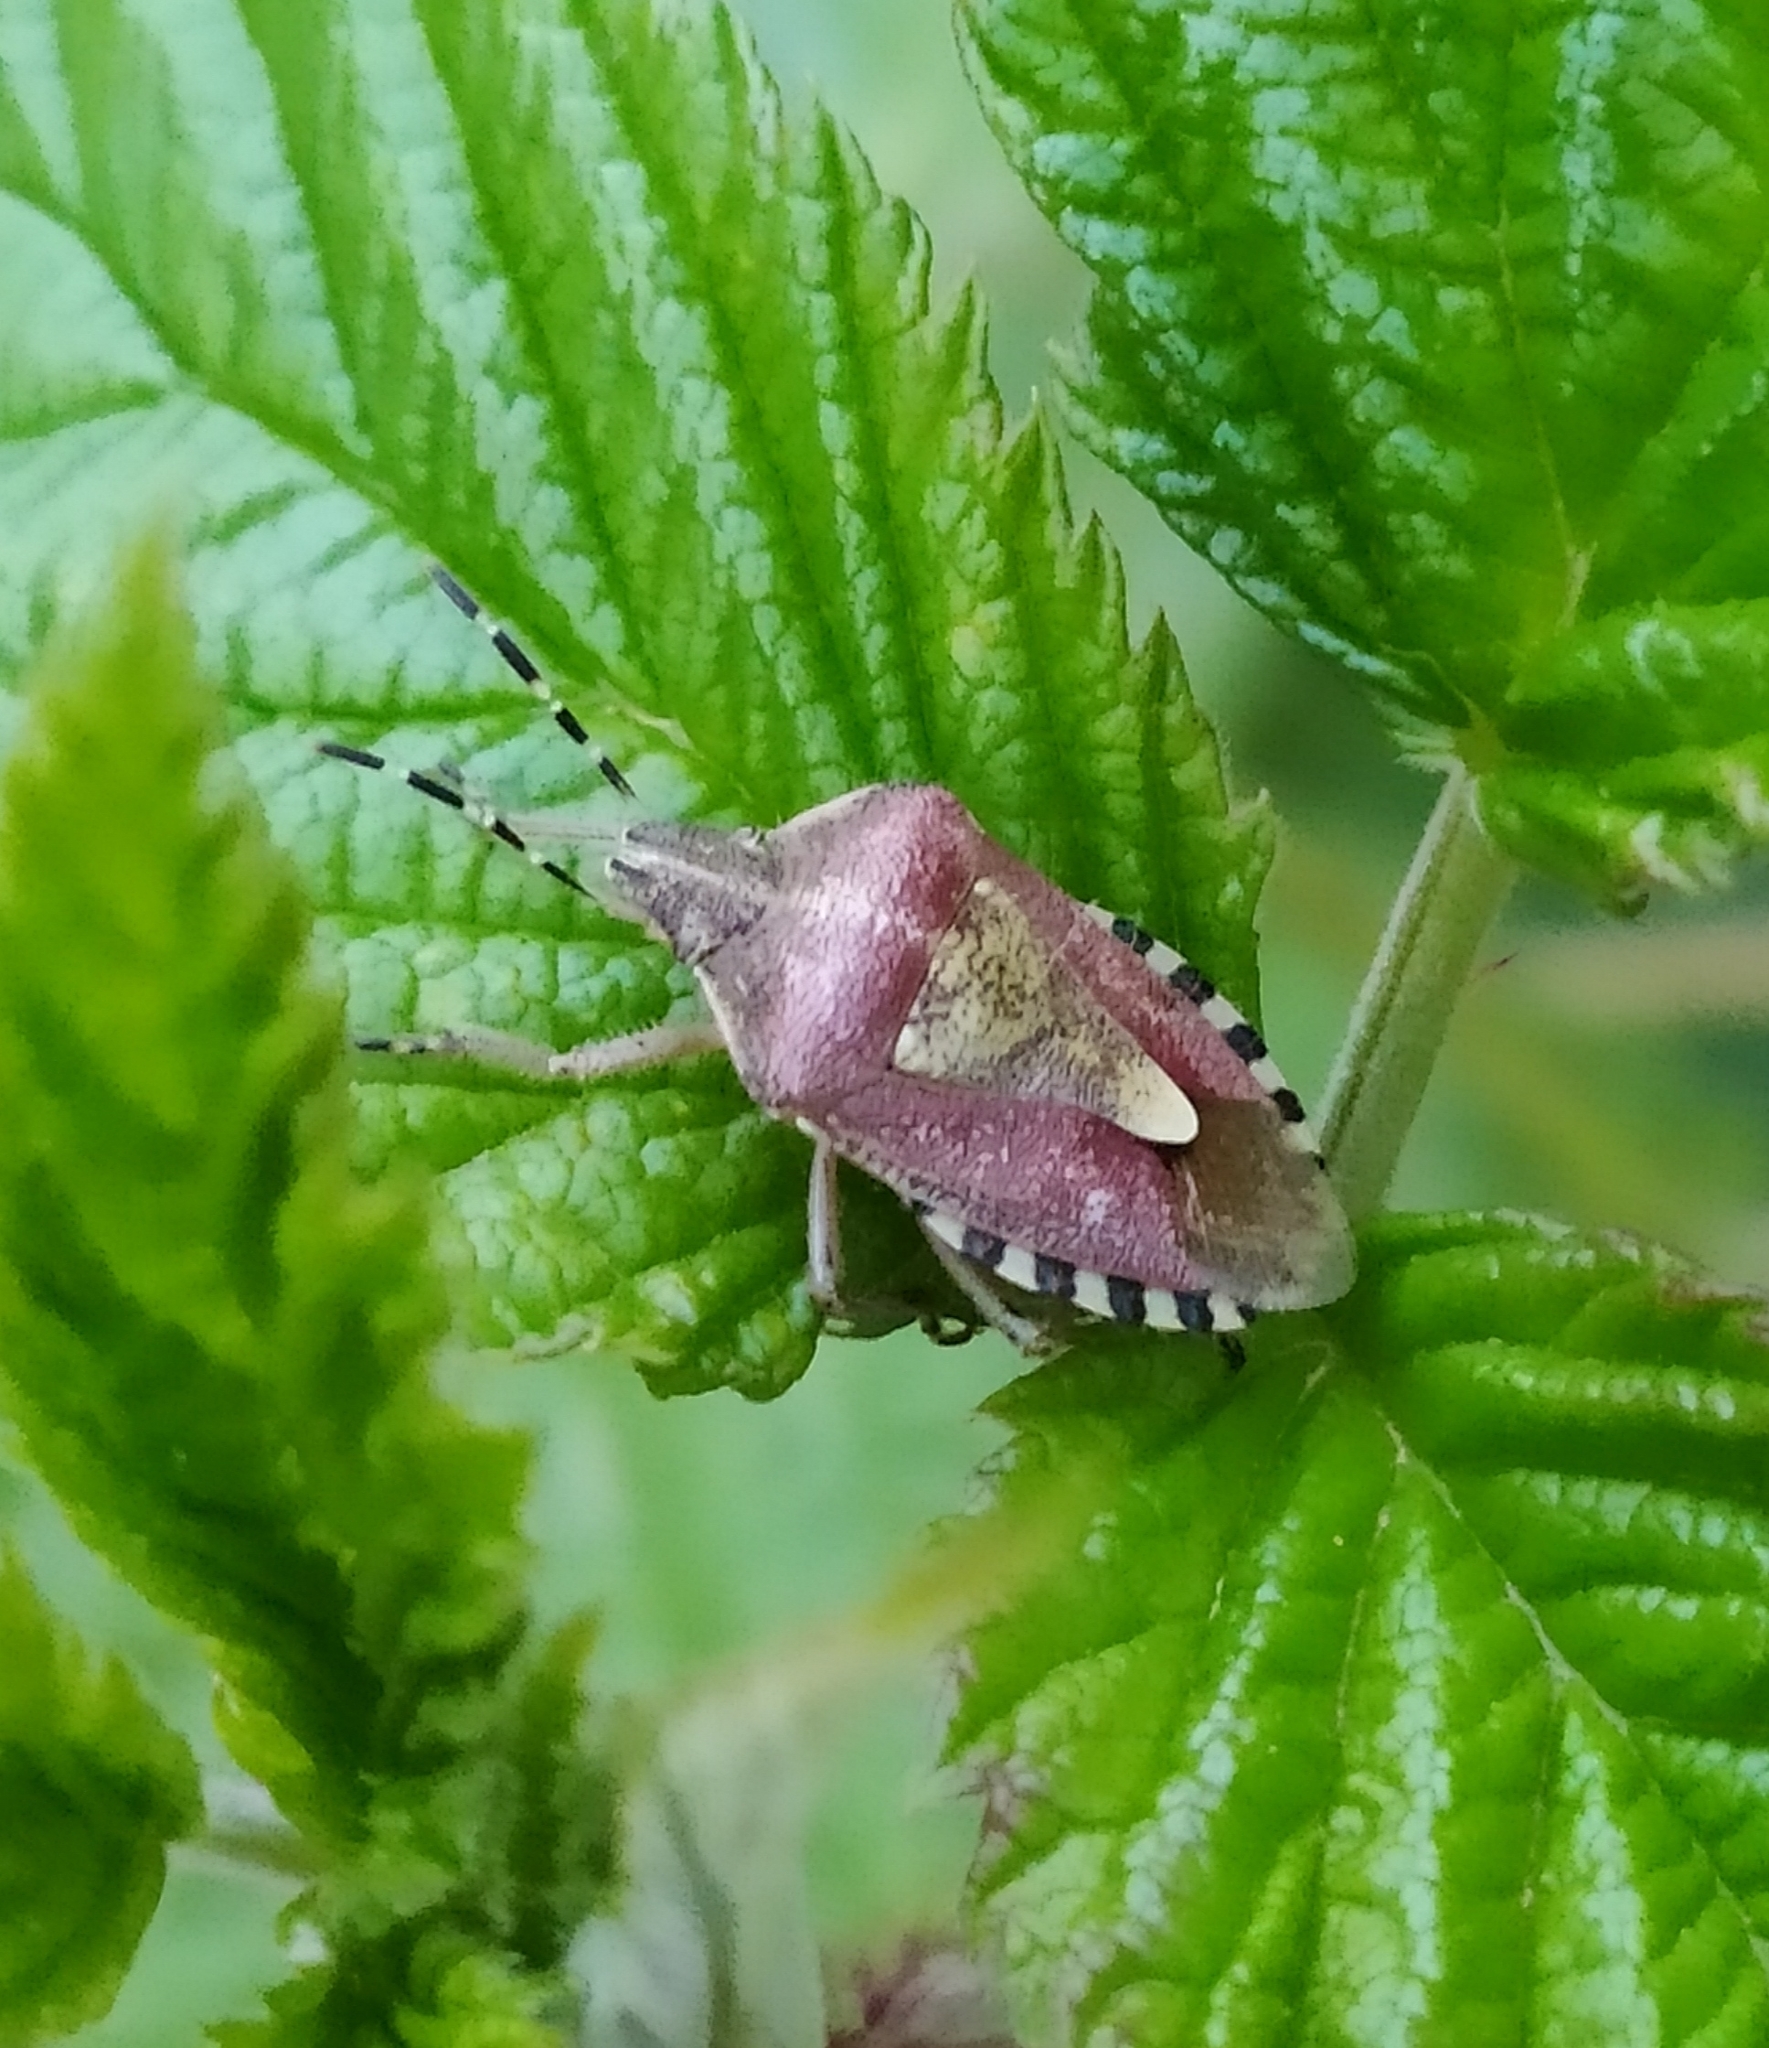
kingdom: Animalia
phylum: Arthropoda
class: Insecta
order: Hemiptera
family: Pentatomidae
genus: Dolycoris
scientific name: Dolycoris baccarum
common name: Sloe bug
